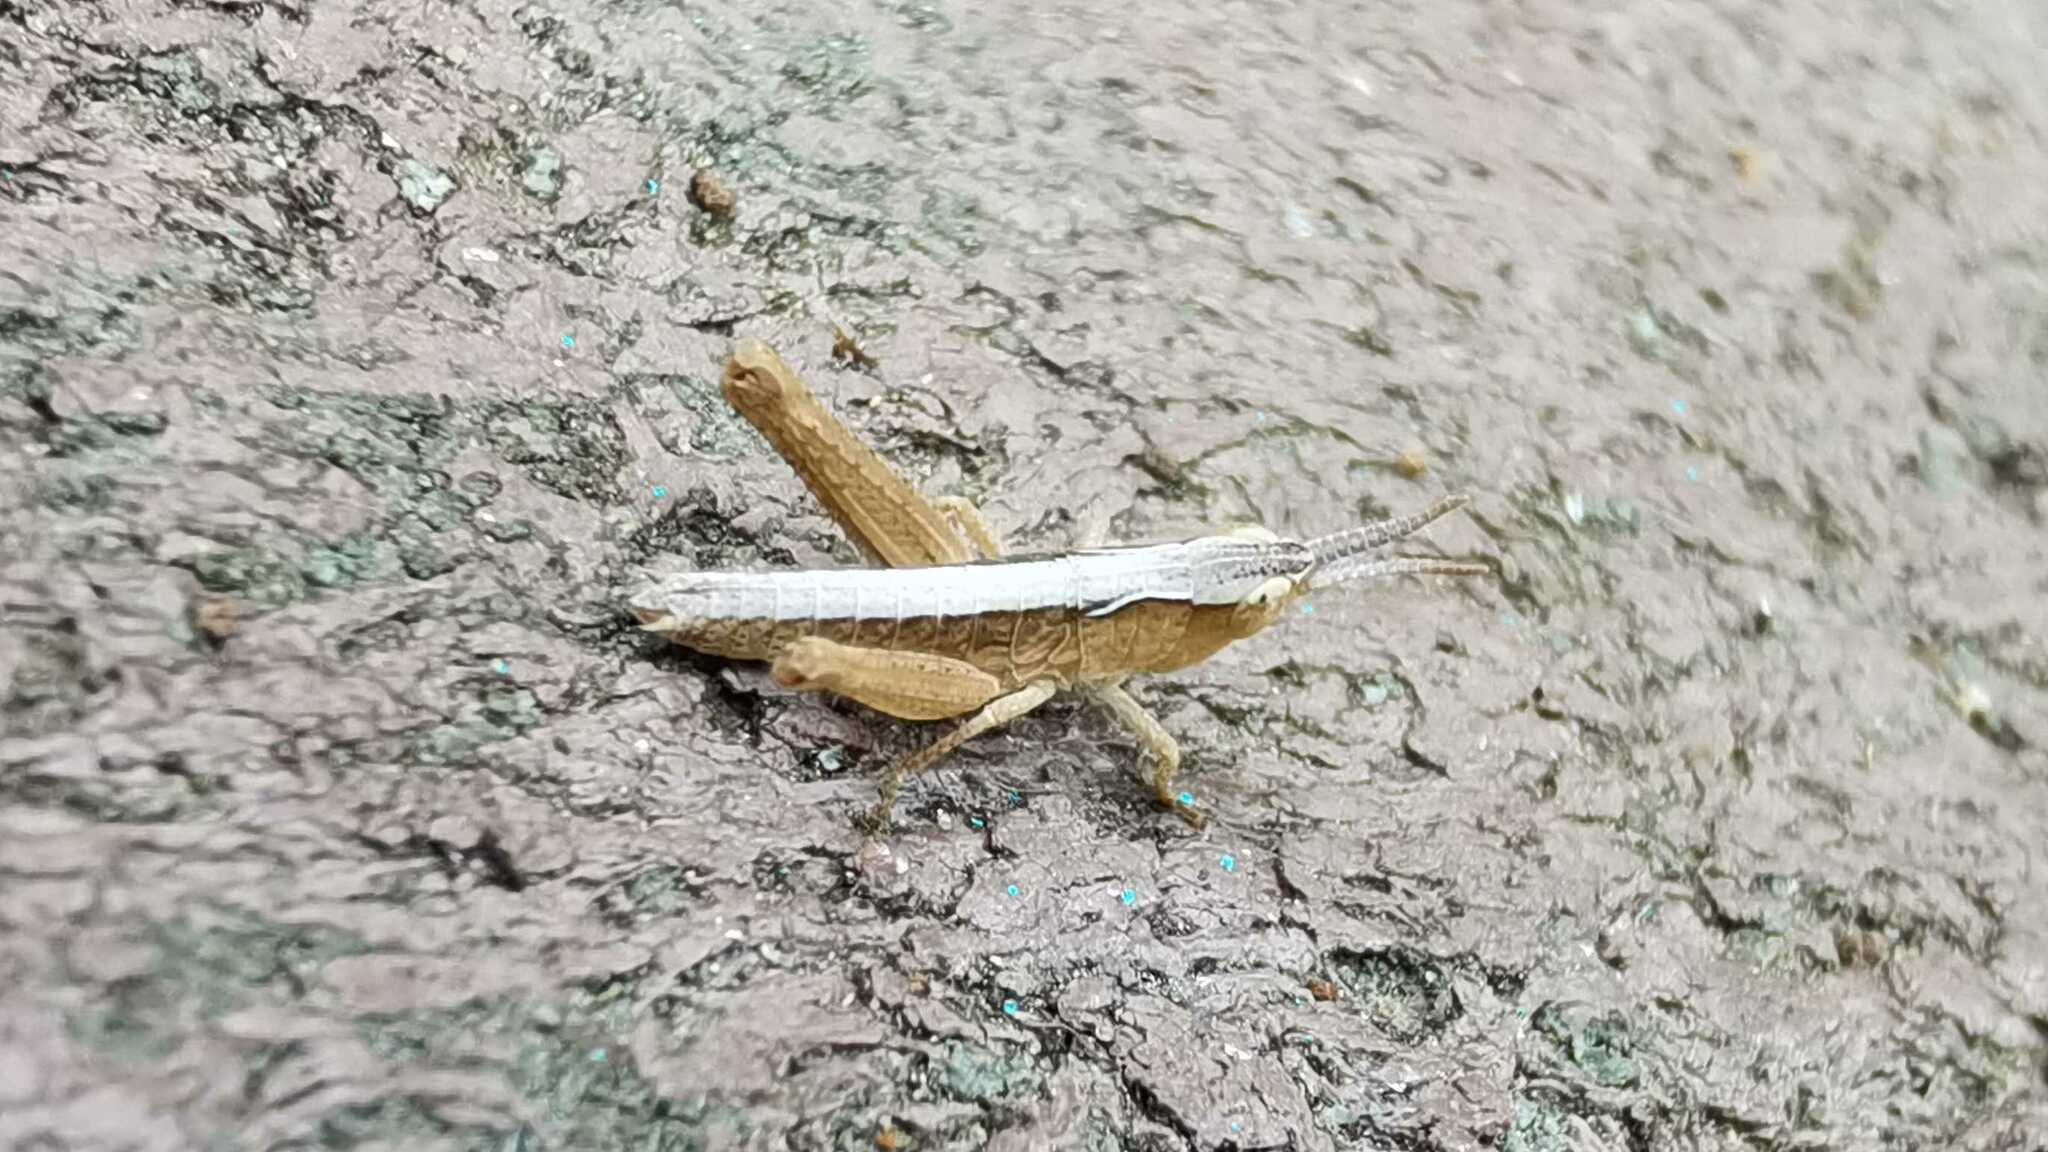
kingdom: Animalia
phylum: Arthropoda
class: Insecta
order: Orthoptera
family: Acrididae
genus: Glyptobothrus
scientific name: Glyptobothrus
